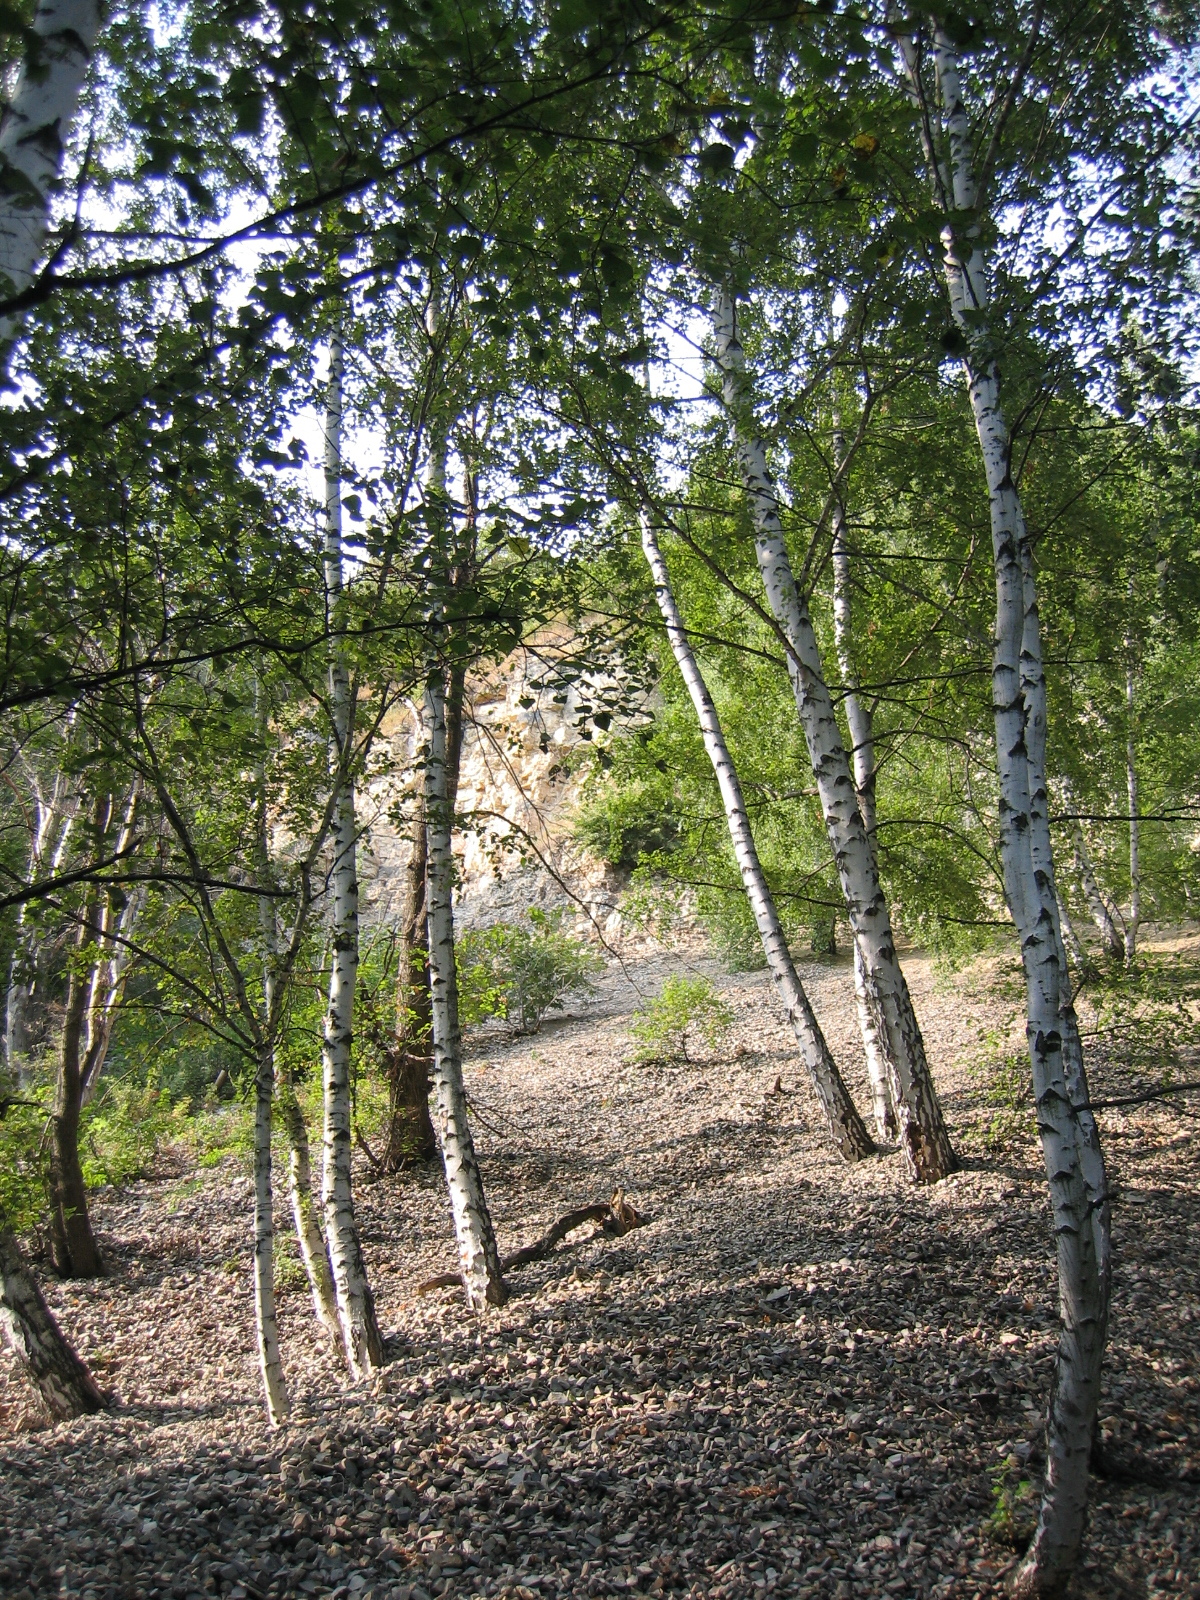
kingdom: Plantae
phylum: Tracheophyta
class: Magnoliopsida
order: Fagales
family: Betulaceae
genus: Betula
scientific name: Betula pendula
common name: Silver birch
